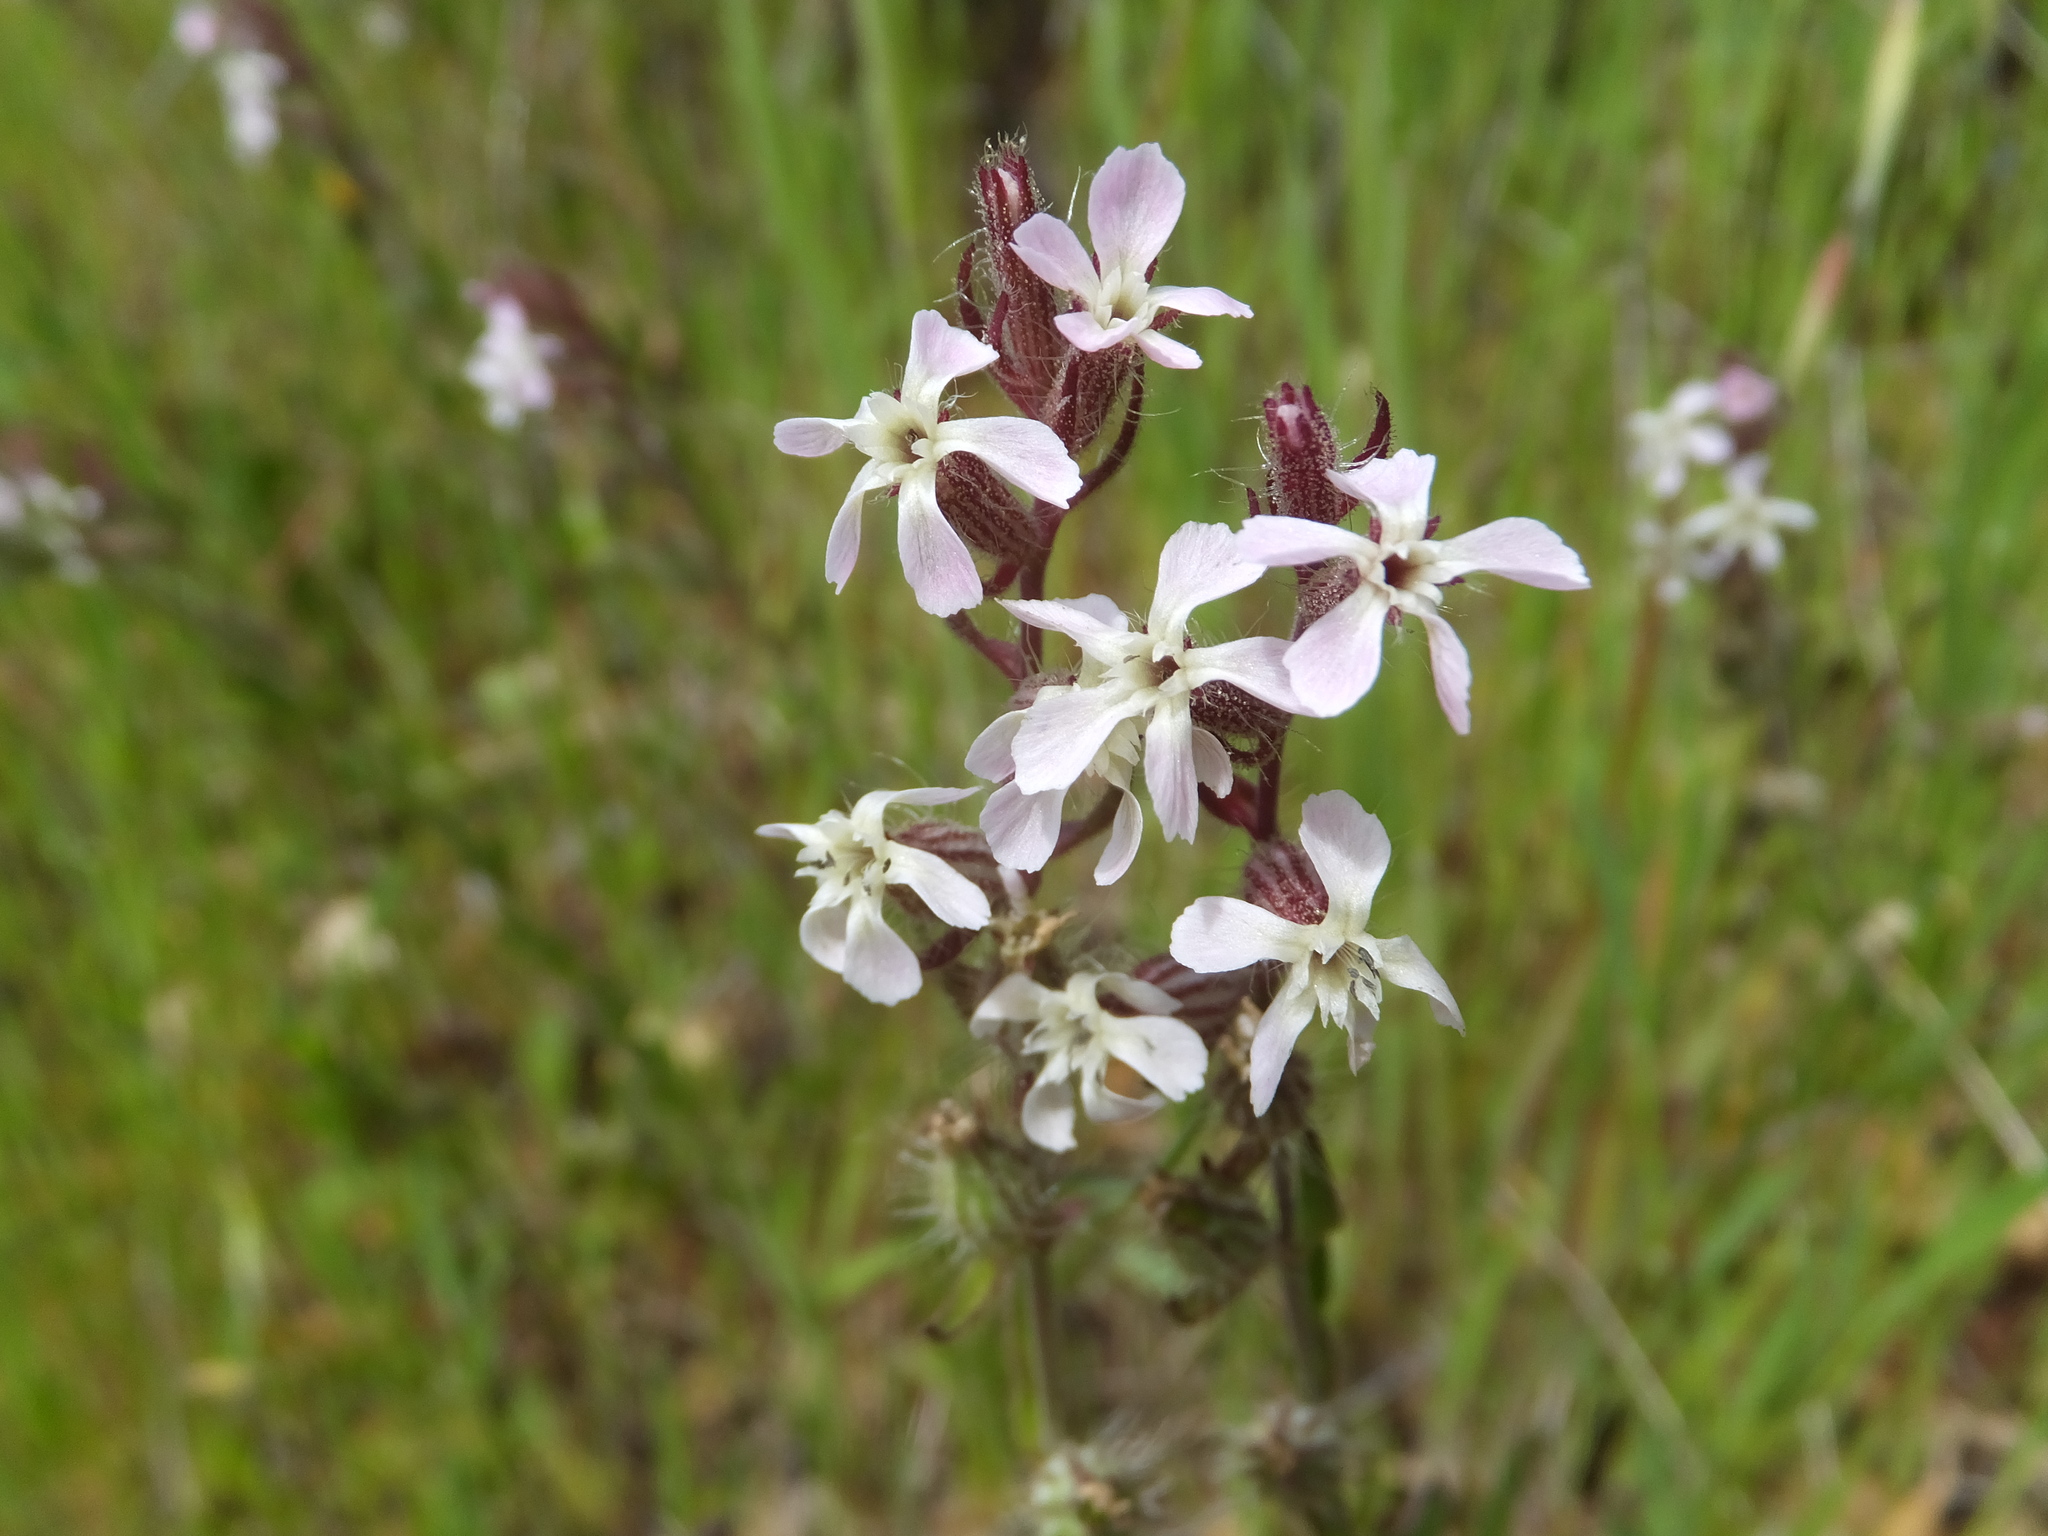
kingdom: Plantae
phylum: Tracheophyta
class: Magnoliopsida
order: Caryophyllales
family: Caryophyllaceae
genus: Silene
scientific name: Silene gallica
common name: Small-flowered catchfly
